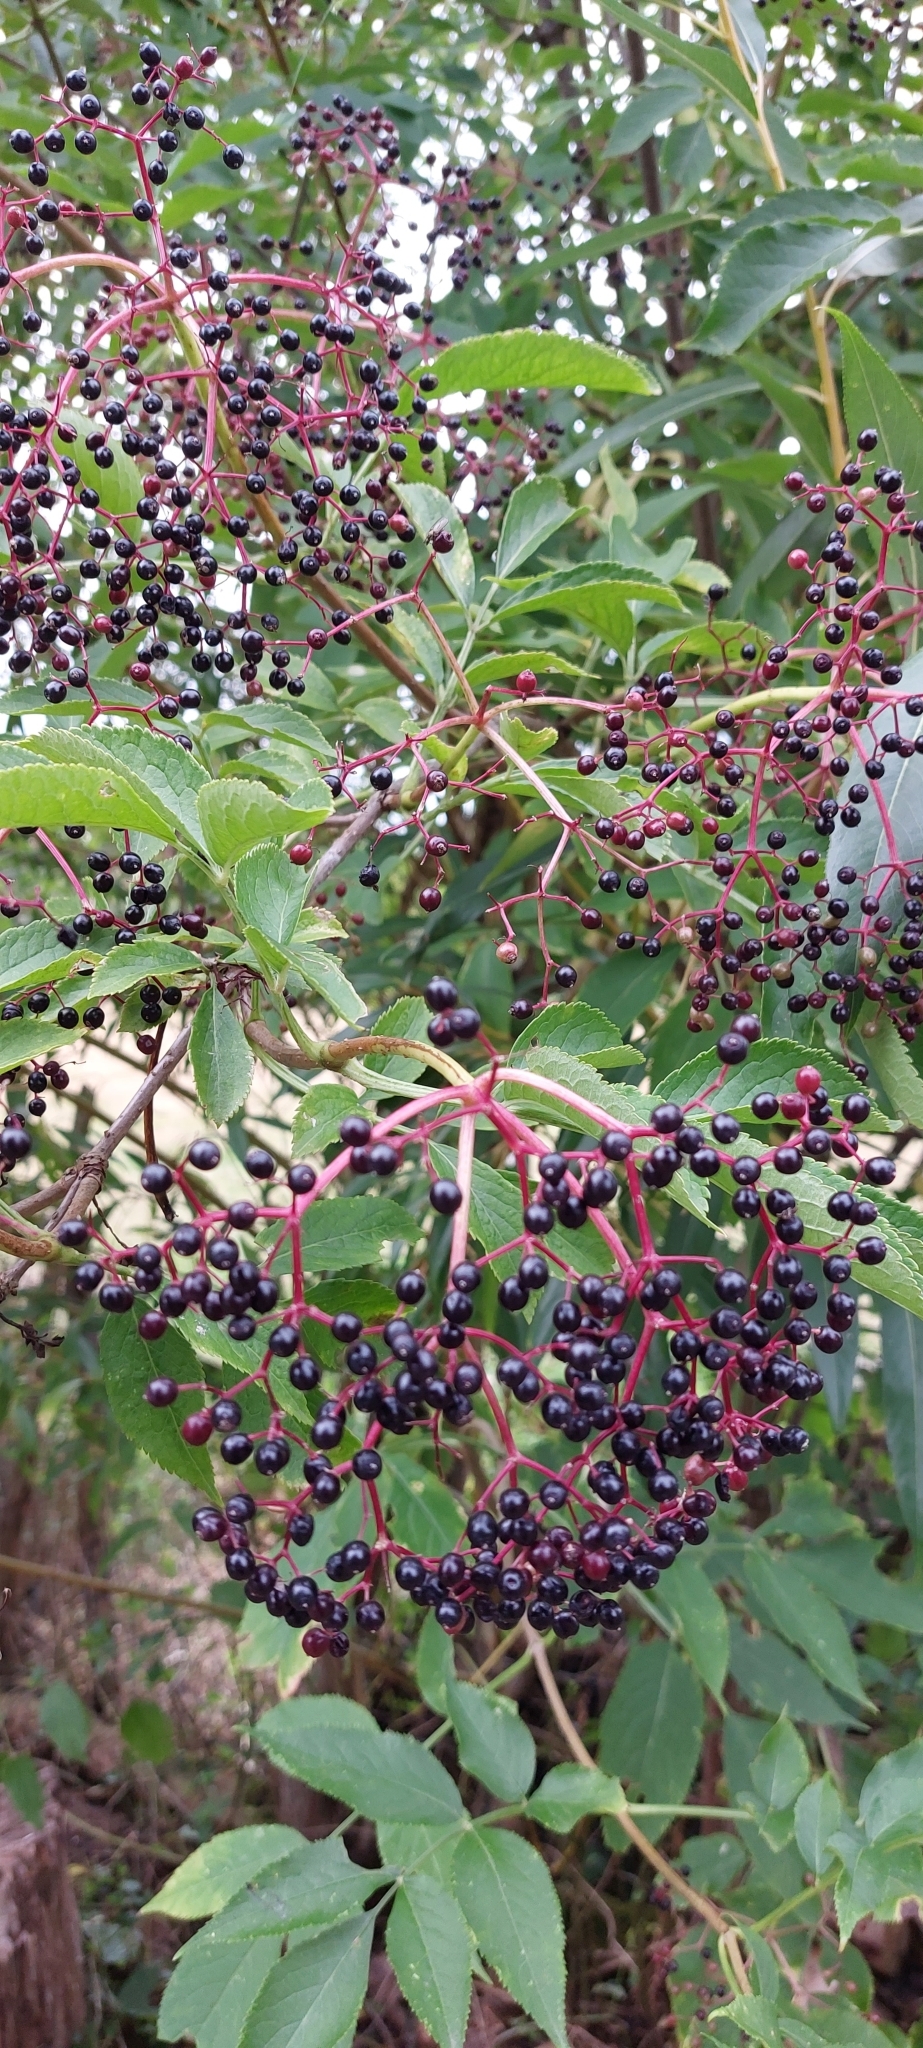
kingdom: Plantae
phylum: Tracheophyta
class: Magnoliopsida
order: Dipsacales
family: Viburnaceae
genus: Sambucus
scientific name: Sambucus nigra
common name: Elder
